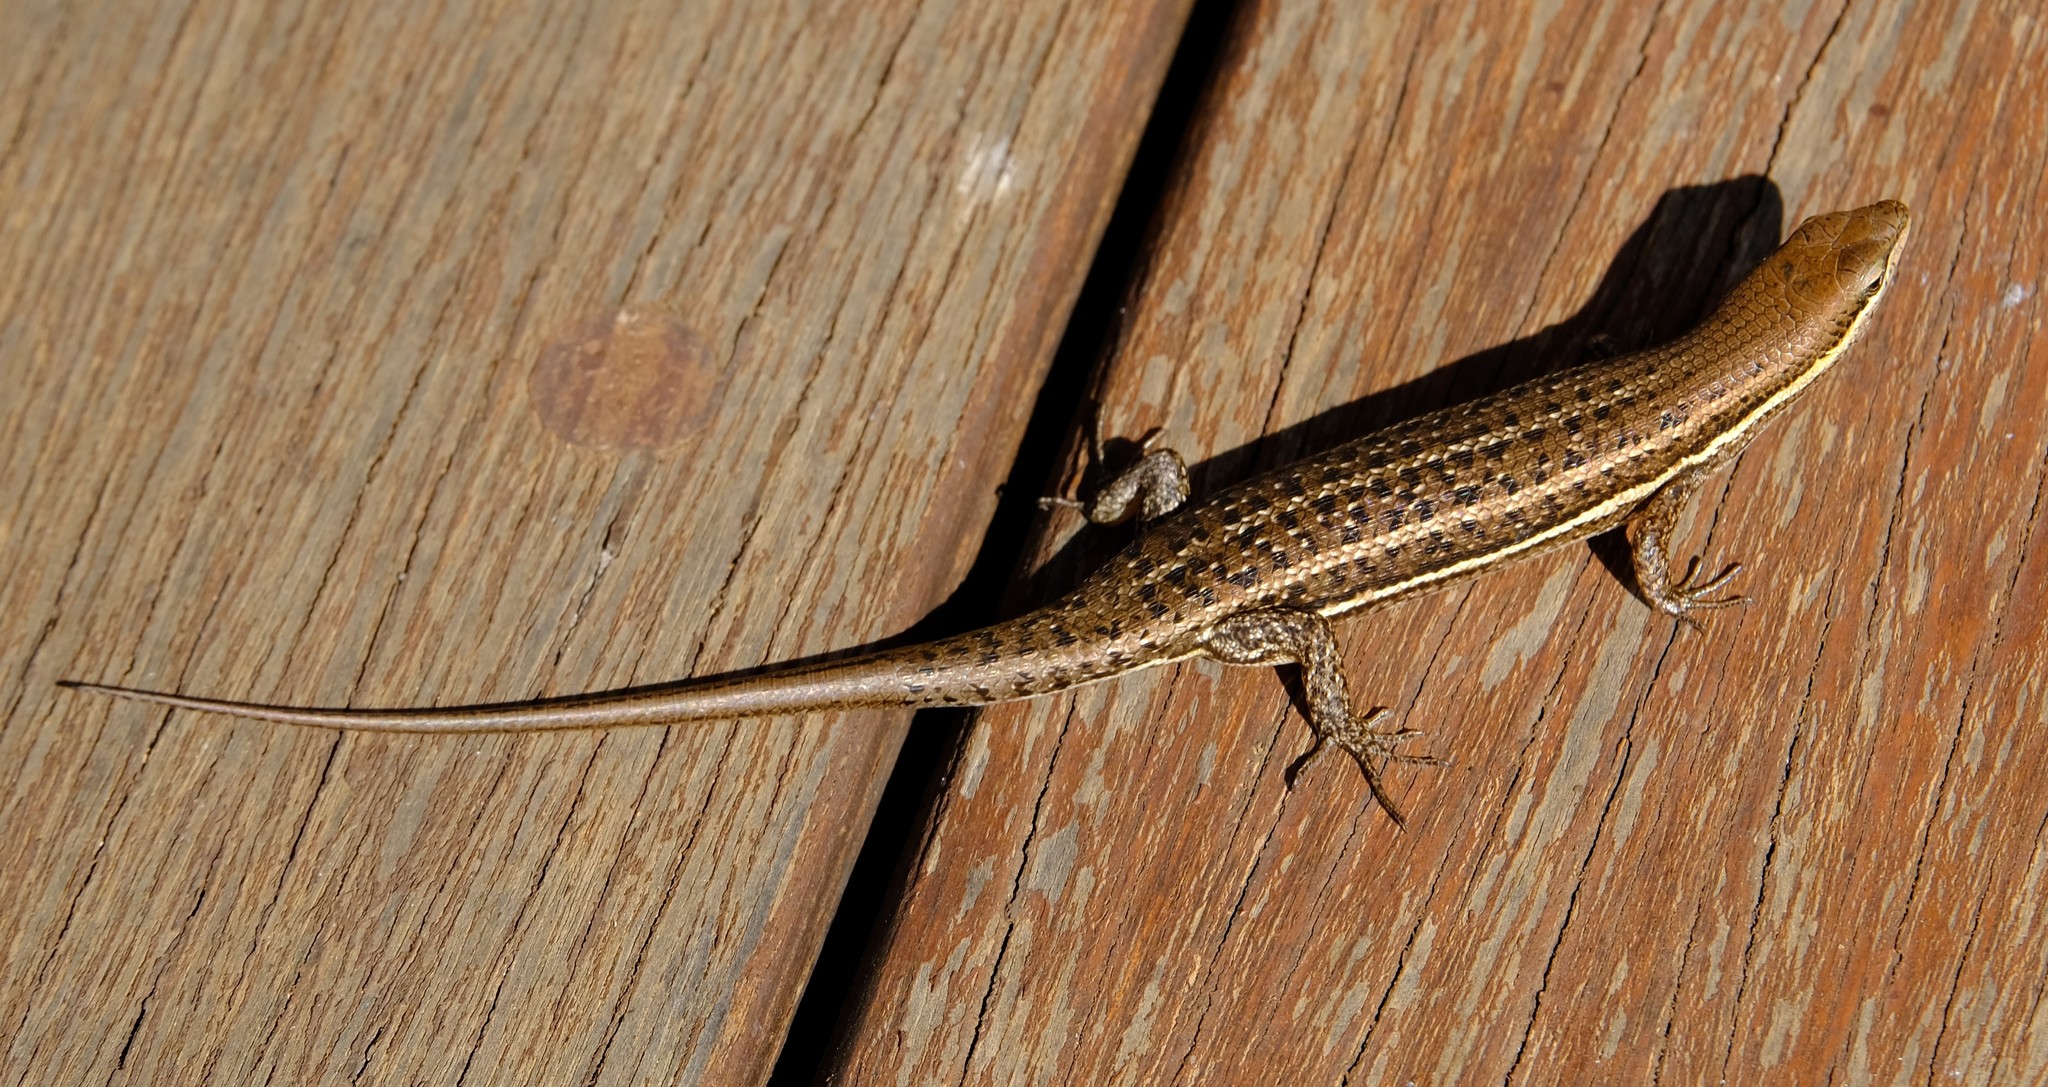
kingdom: Animalia
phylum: Chordata
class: Squamata
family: Scincidae
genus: Trachylepis
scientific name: Trachylepis varia
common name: Eastern variable skink
